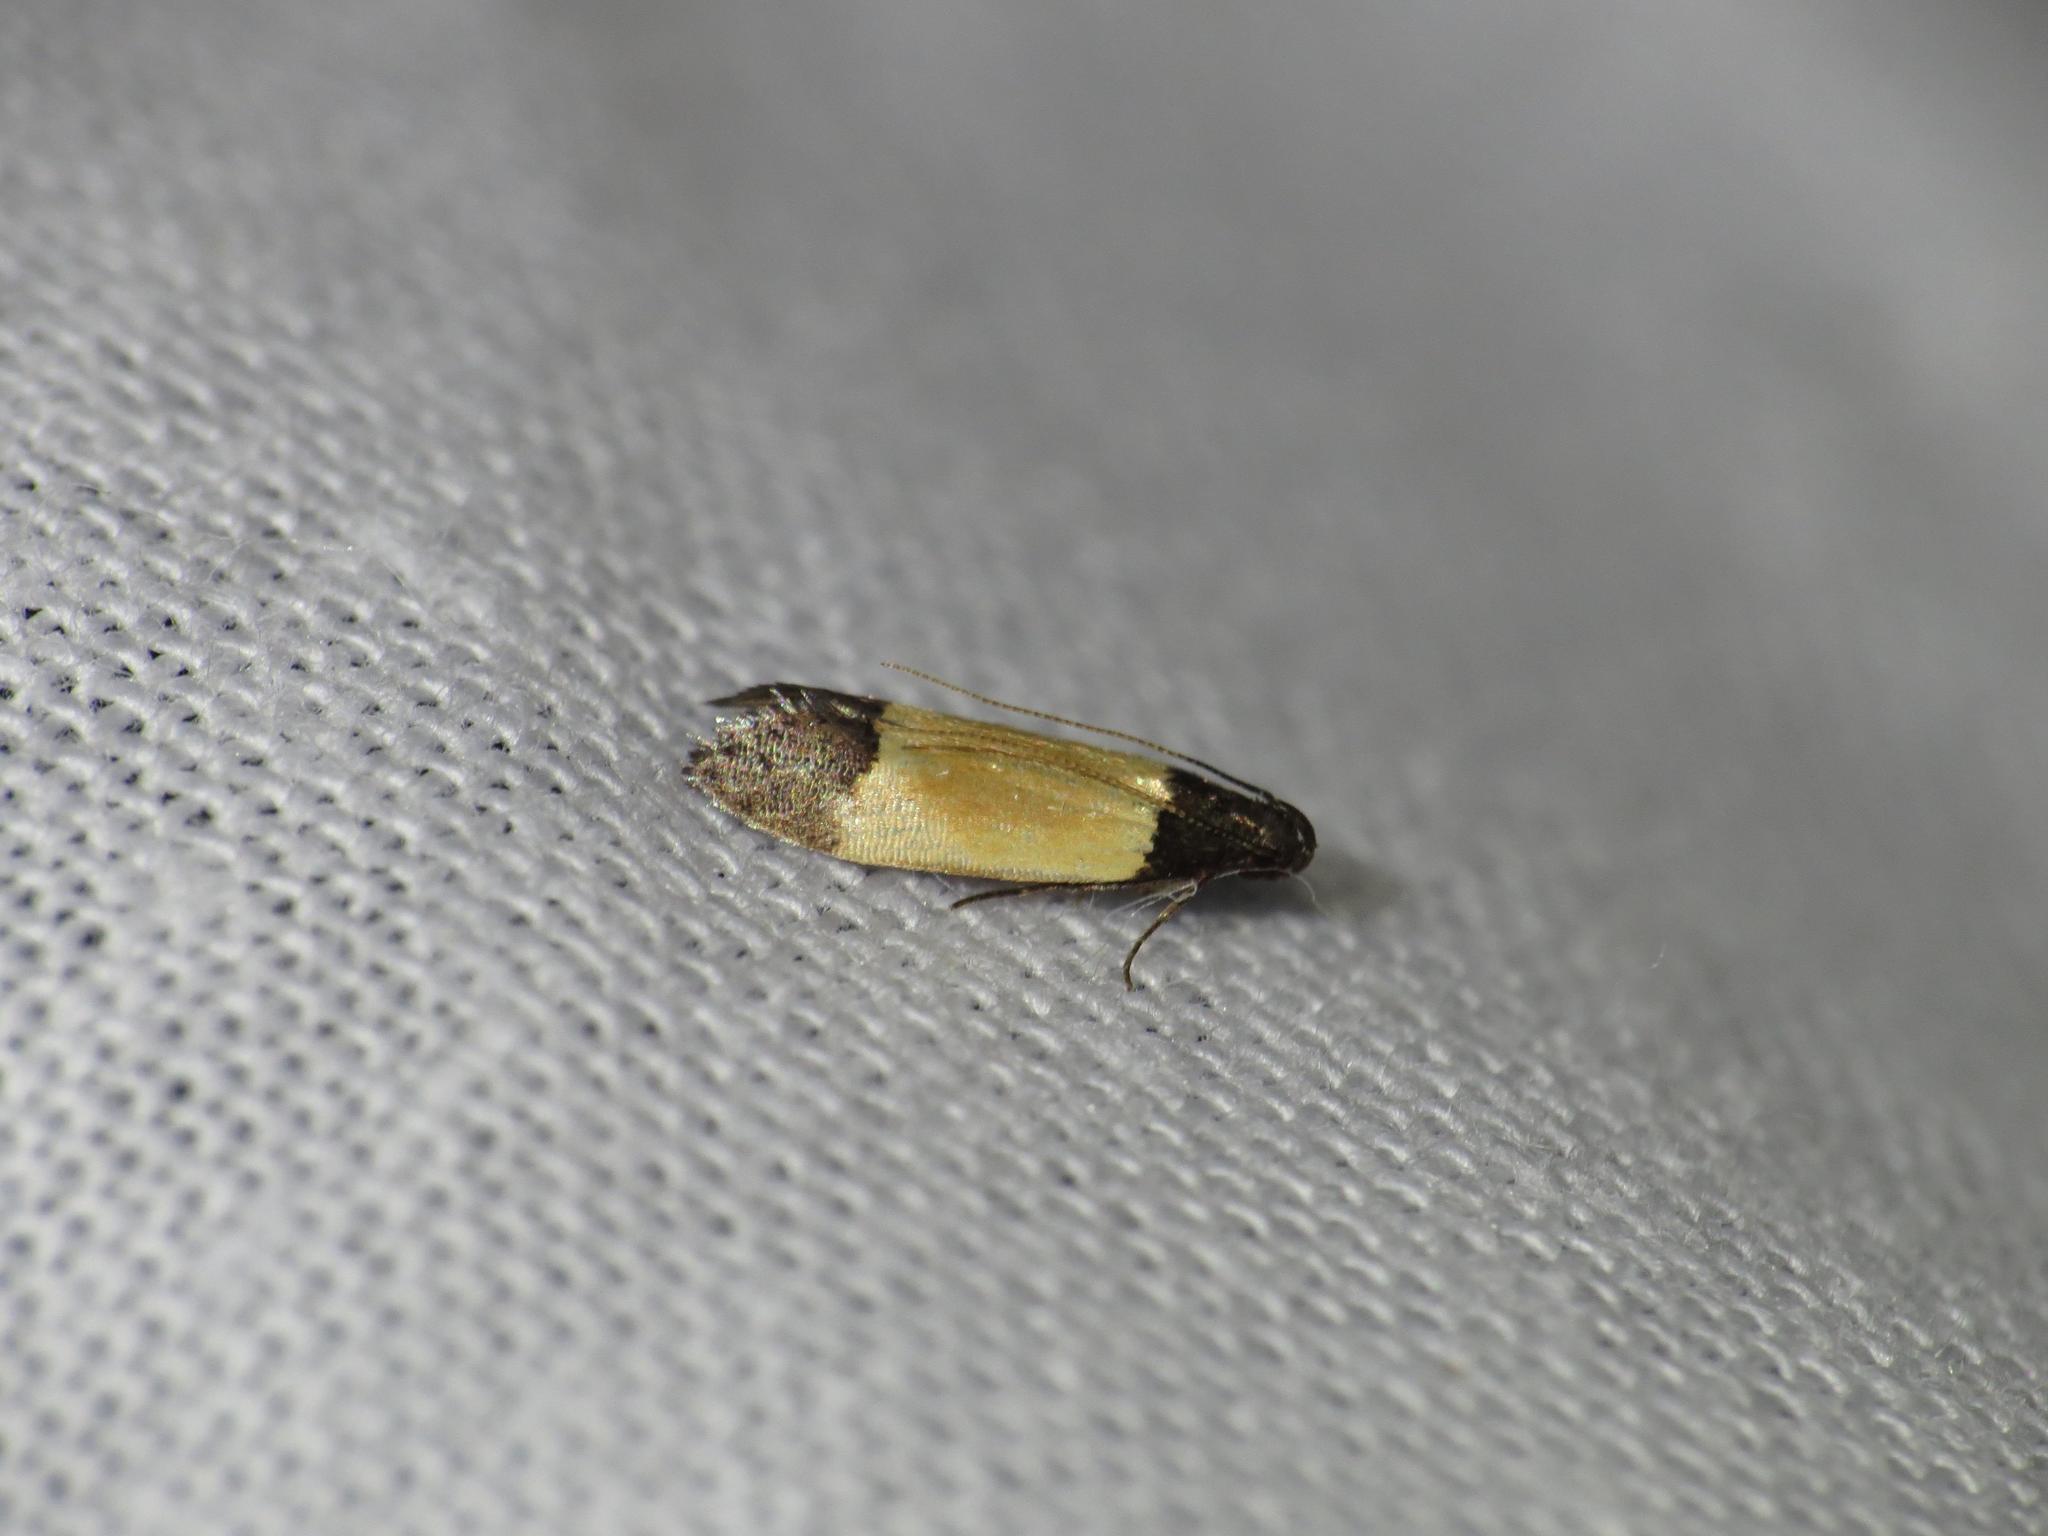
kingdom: Animalia
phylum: Arthropoda
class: Insecta
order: Lepidoptera
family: Gelechiidae
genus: Anacampsis
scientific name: Anacampsis coverdalella
